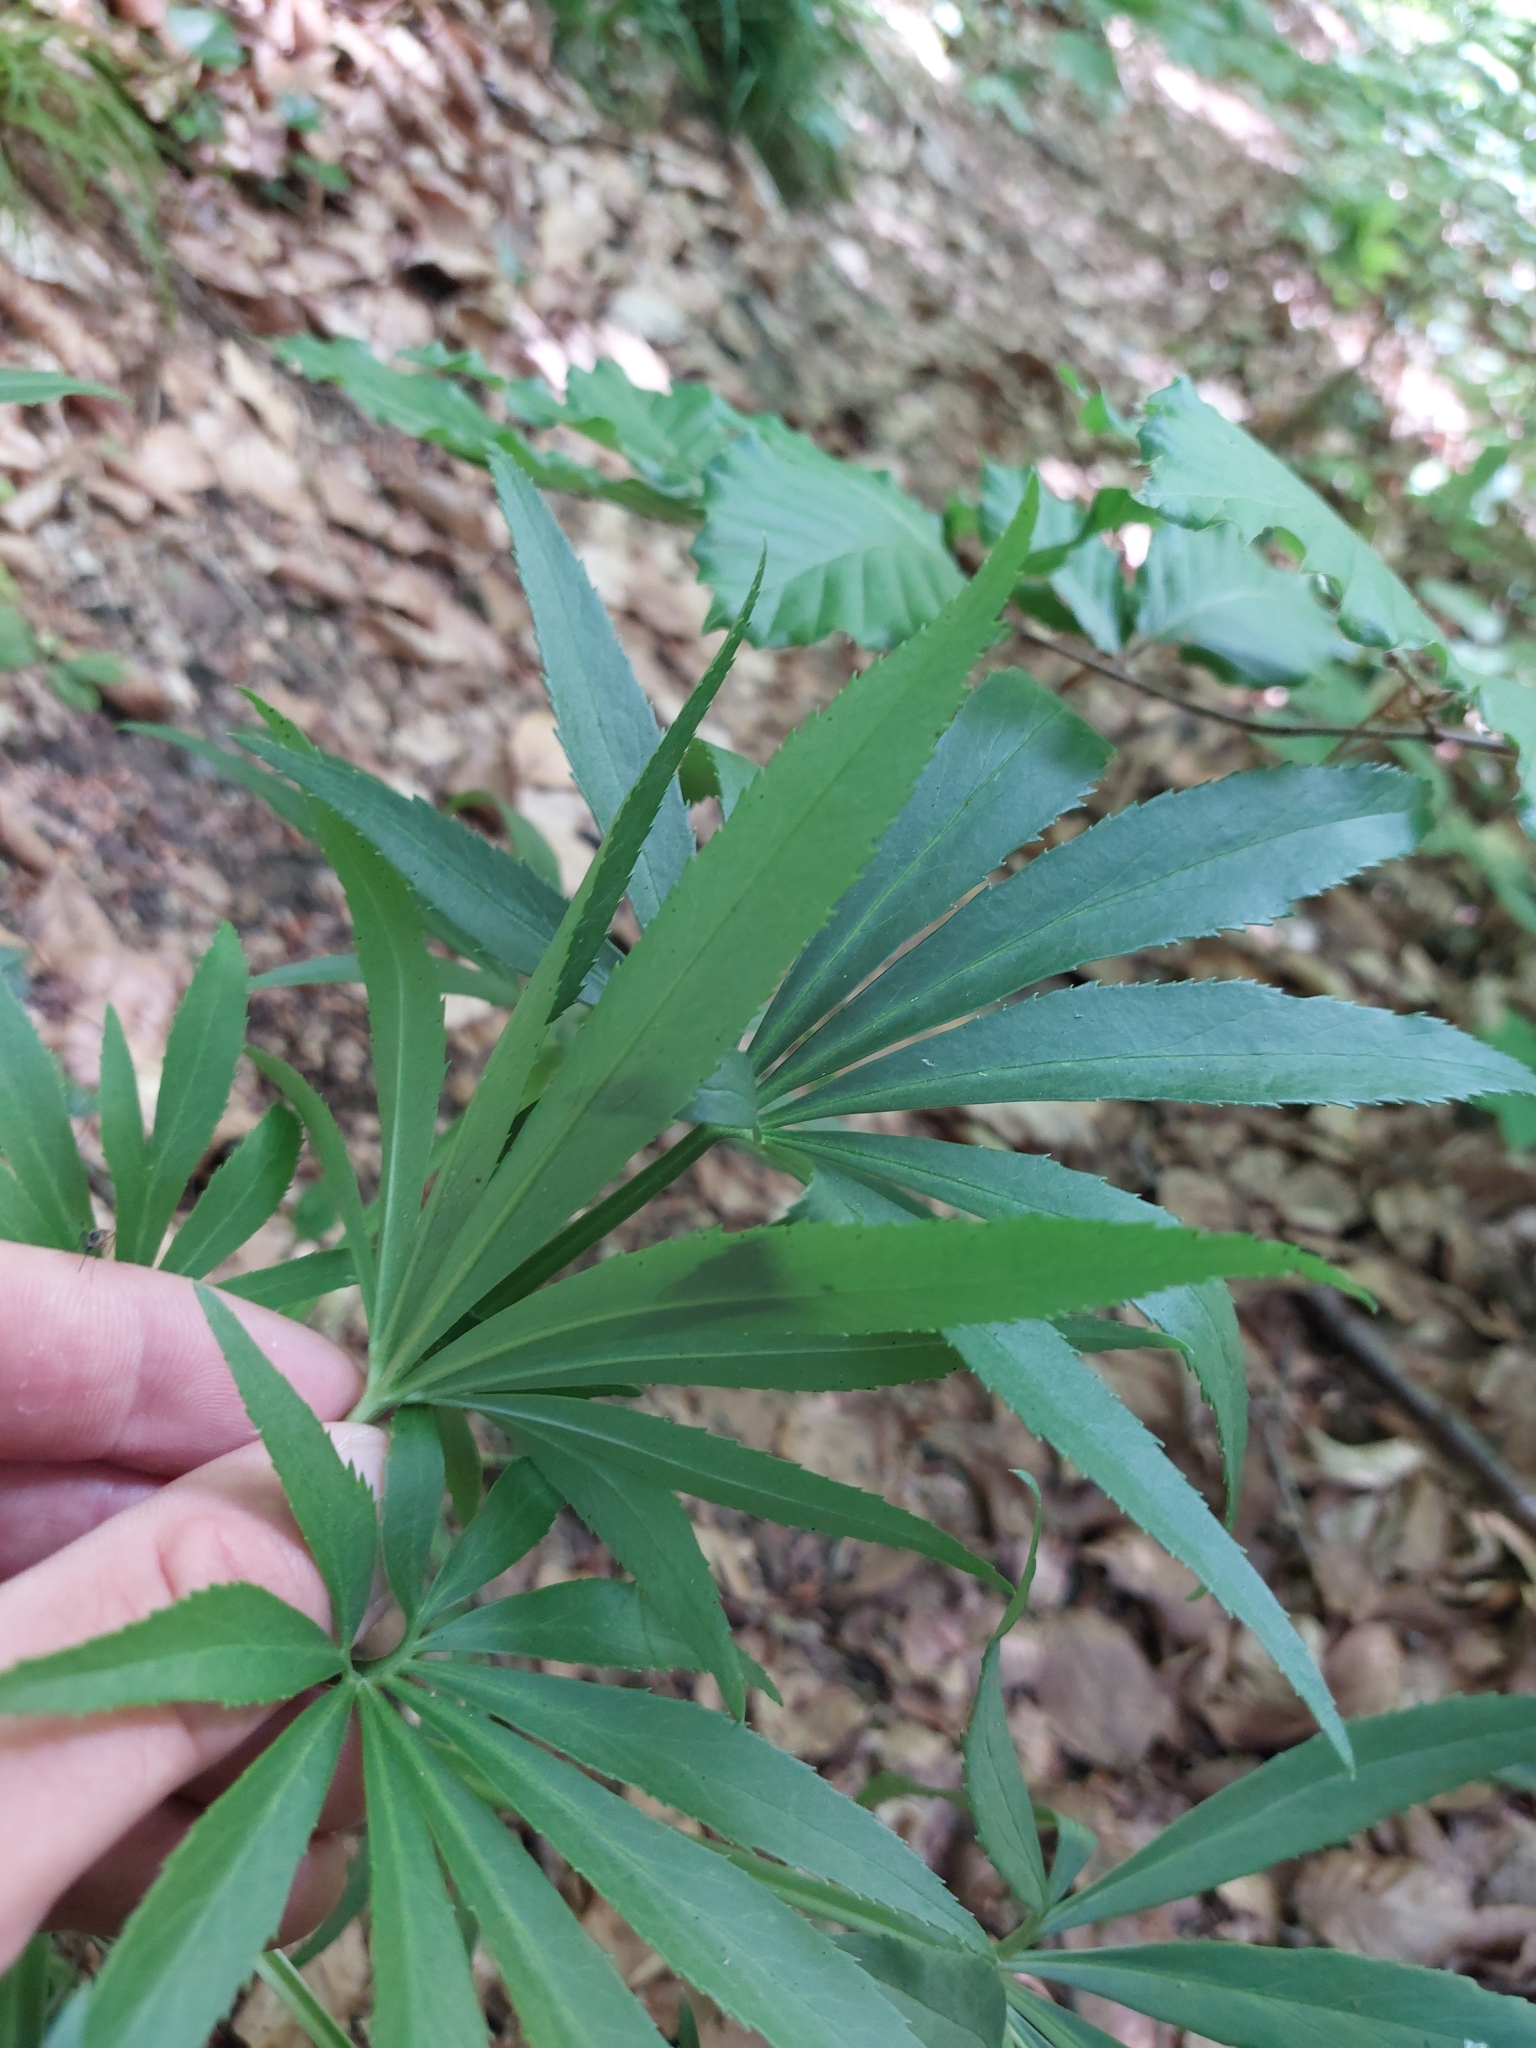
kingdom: Plantae
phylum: Tracheophyta
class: Magnoliopsida
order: Ranunculales
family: Ranunculaceae
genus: Helleborus
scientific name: Helleborus foetidus
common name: Stinking hellebore
